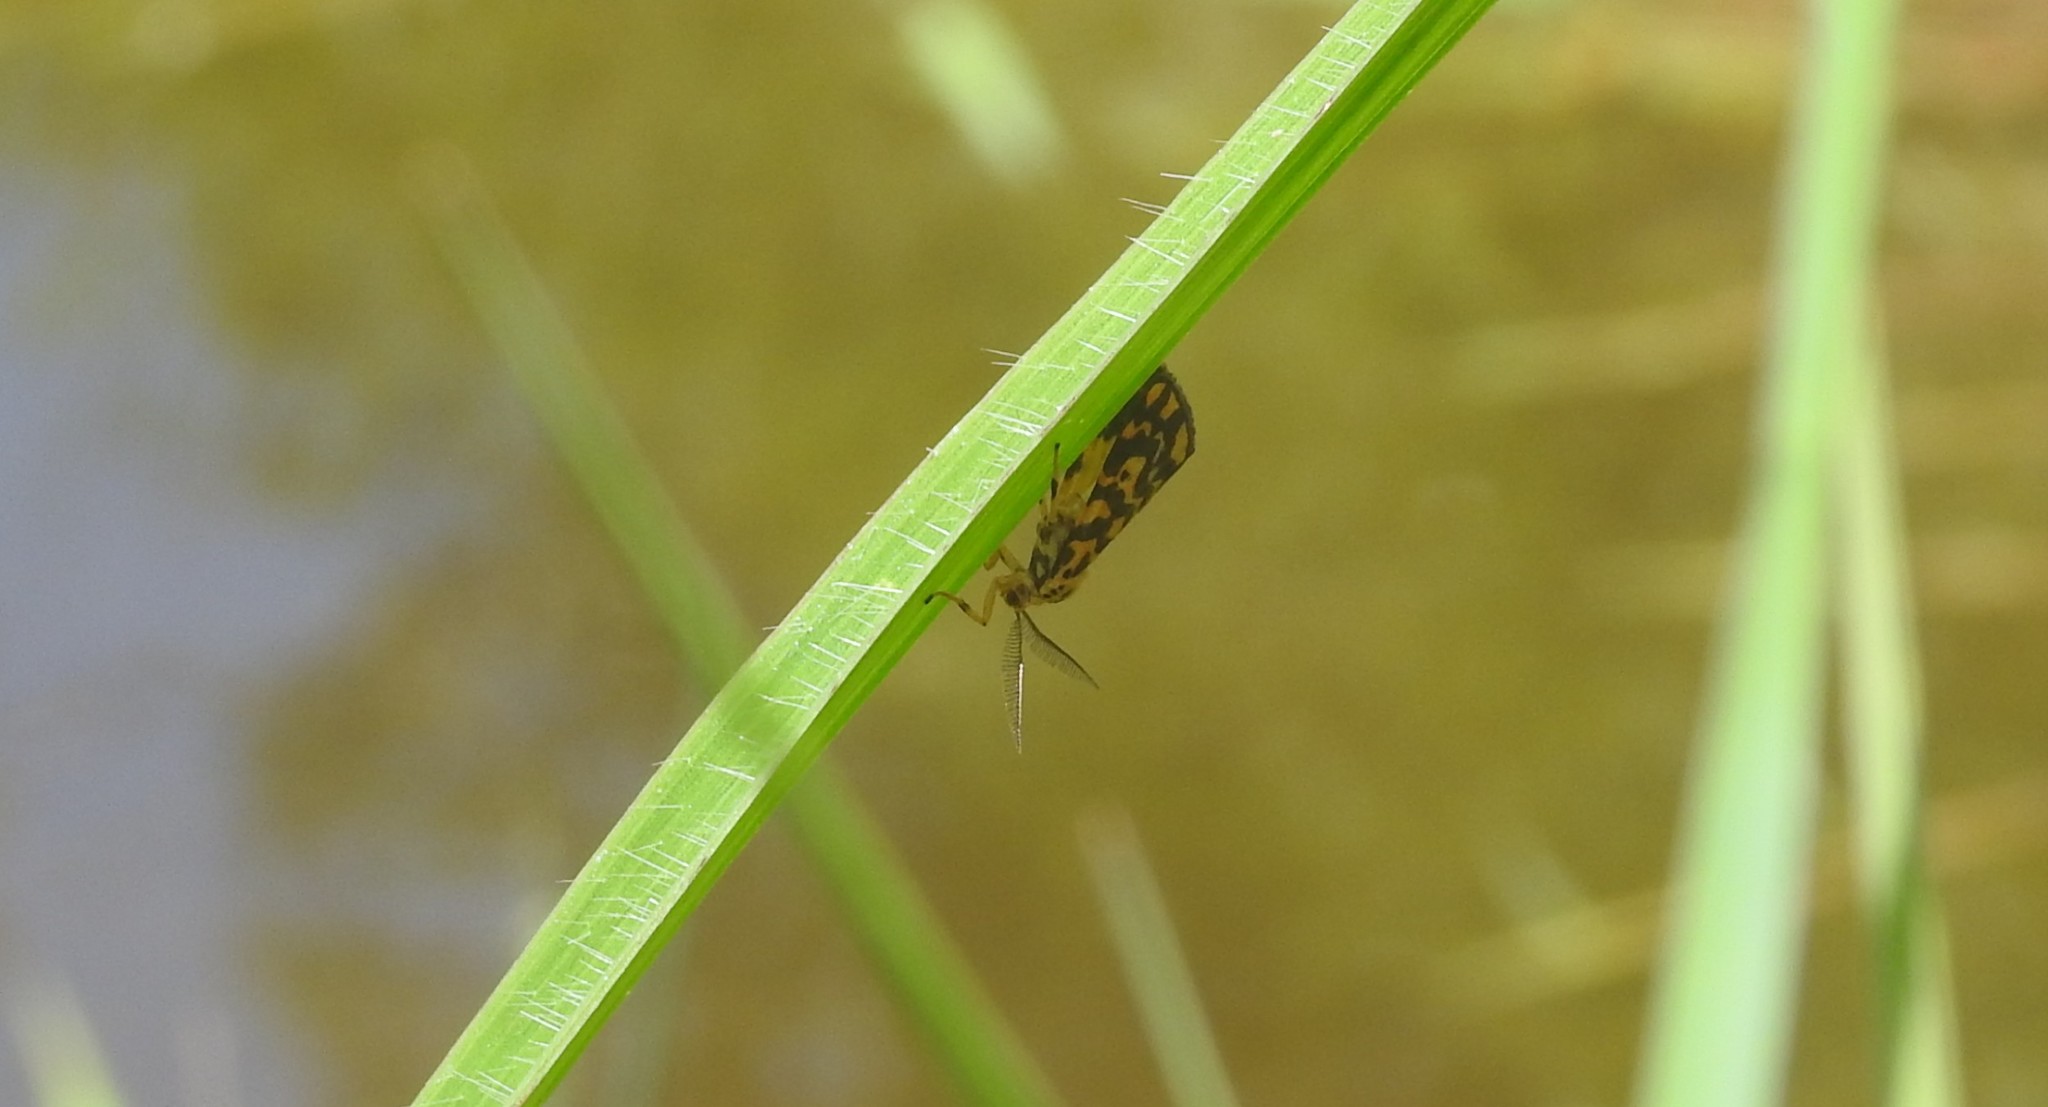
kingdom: Animalia
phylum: Arthropoda
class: Insecta
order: Lepidoptera
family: Erebidae
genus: Nepita
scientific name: Nepita conferta
